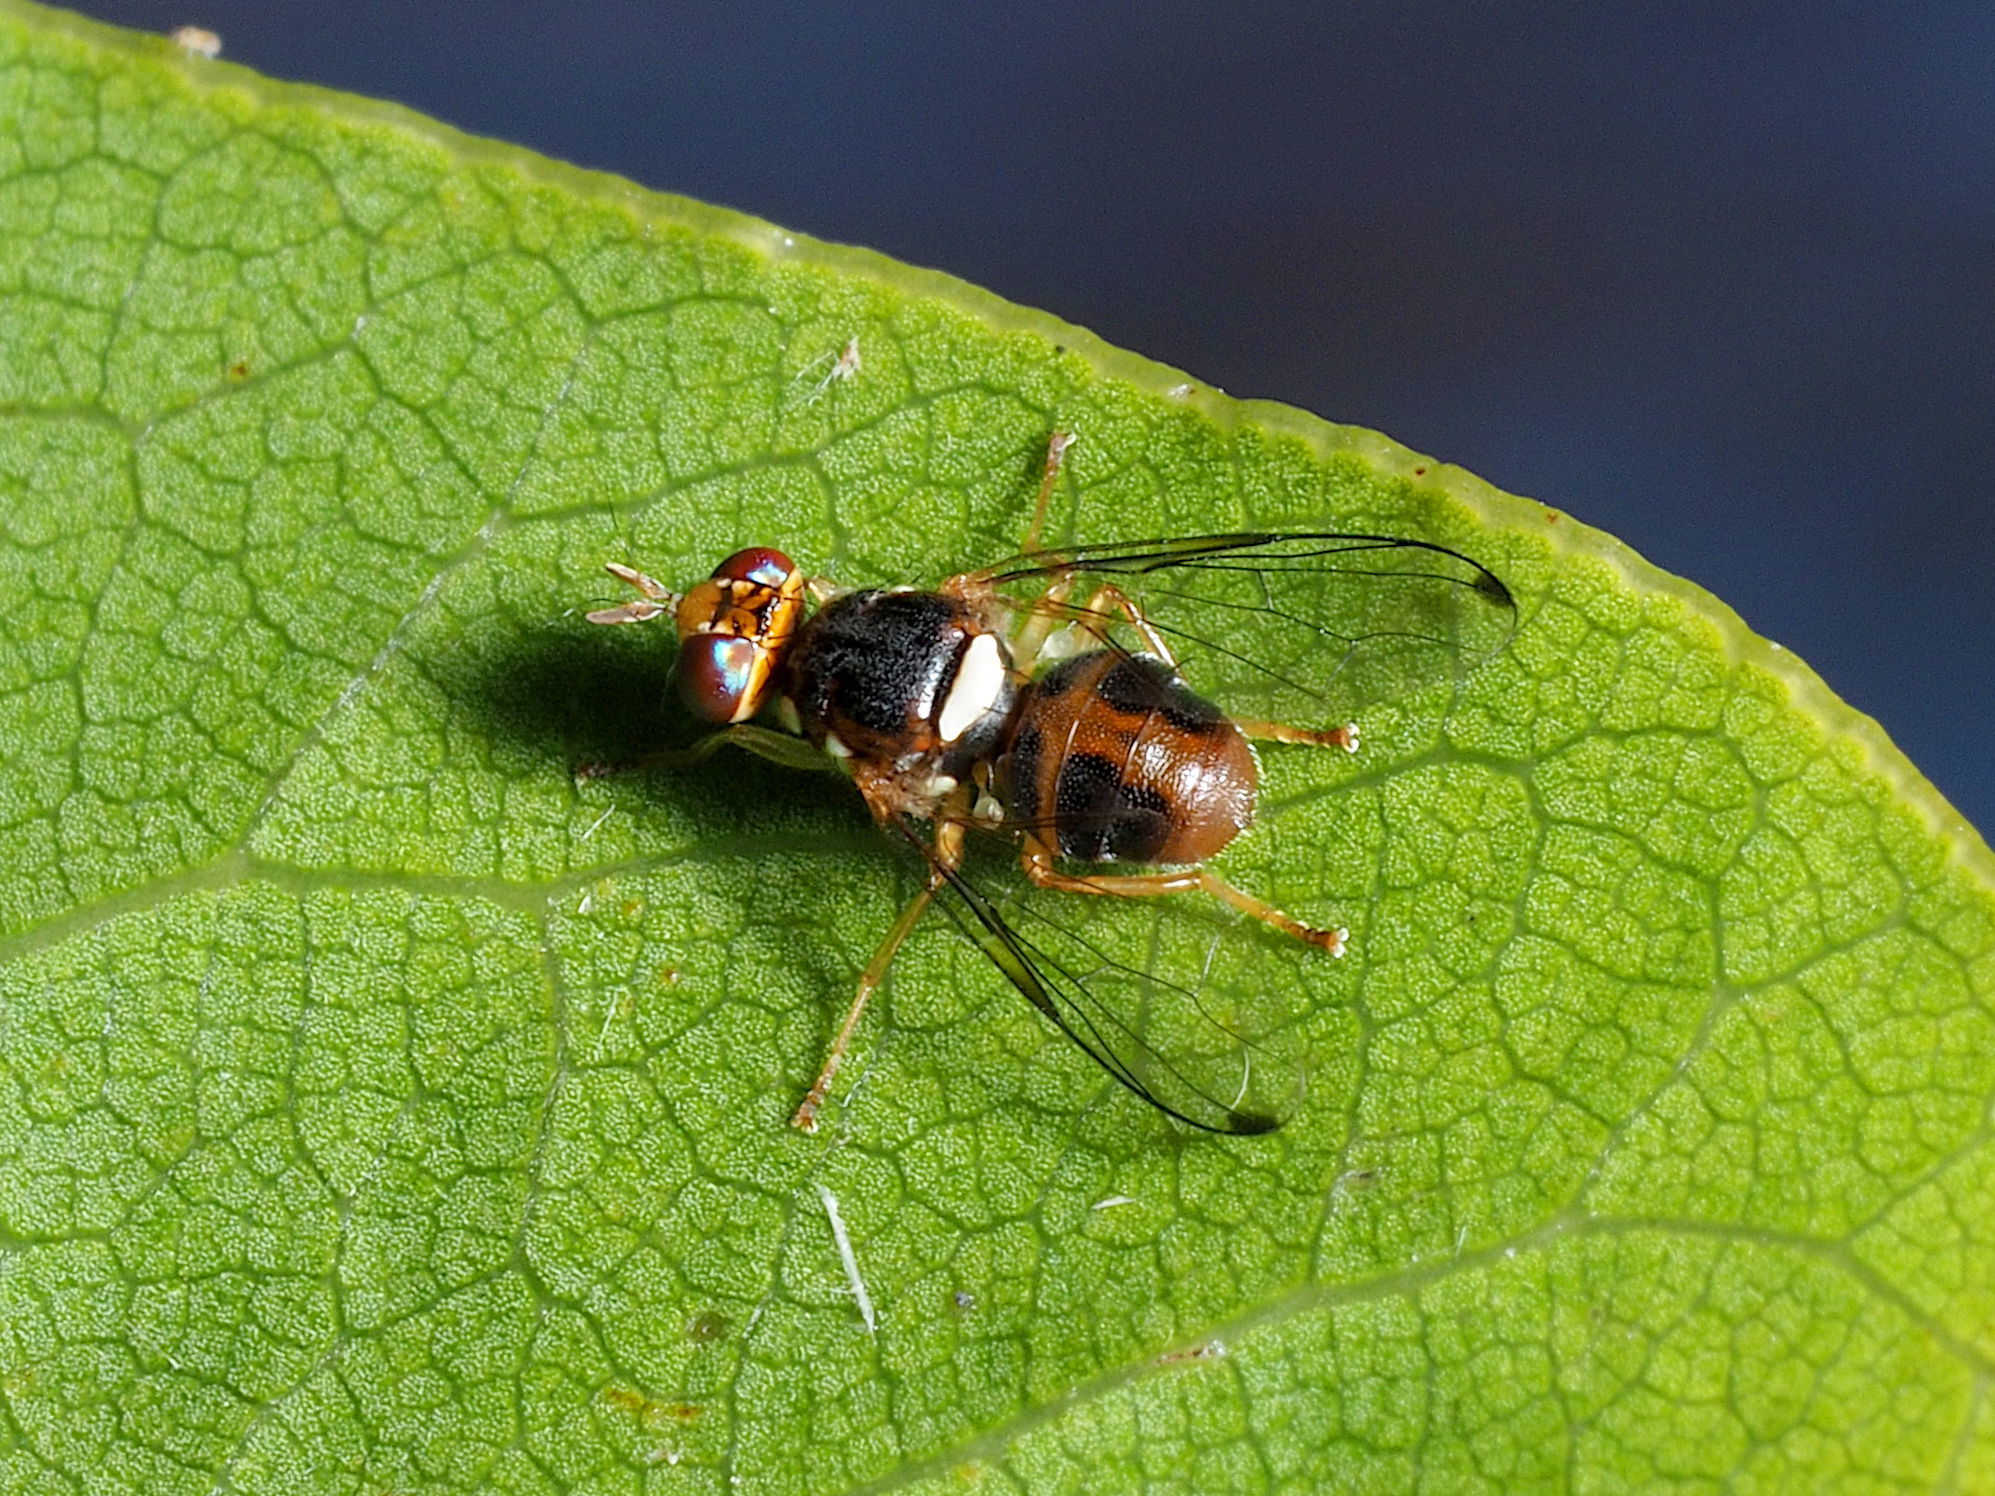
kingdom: Animalia
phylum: Arthropoda
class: Insecta
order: Diptera
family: Tephritidae
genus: Bactrocera
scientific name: Bactrocera oleae
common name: Olive fruit fly
